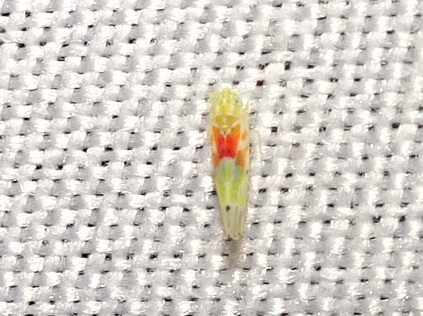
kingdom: Animalia
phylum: Arthropoda
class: Insecta
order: Hemiptera
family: Cicadellidae
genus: Erythroneura
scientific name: Erythroneura octonotata
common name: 8-spotted leafhopper
